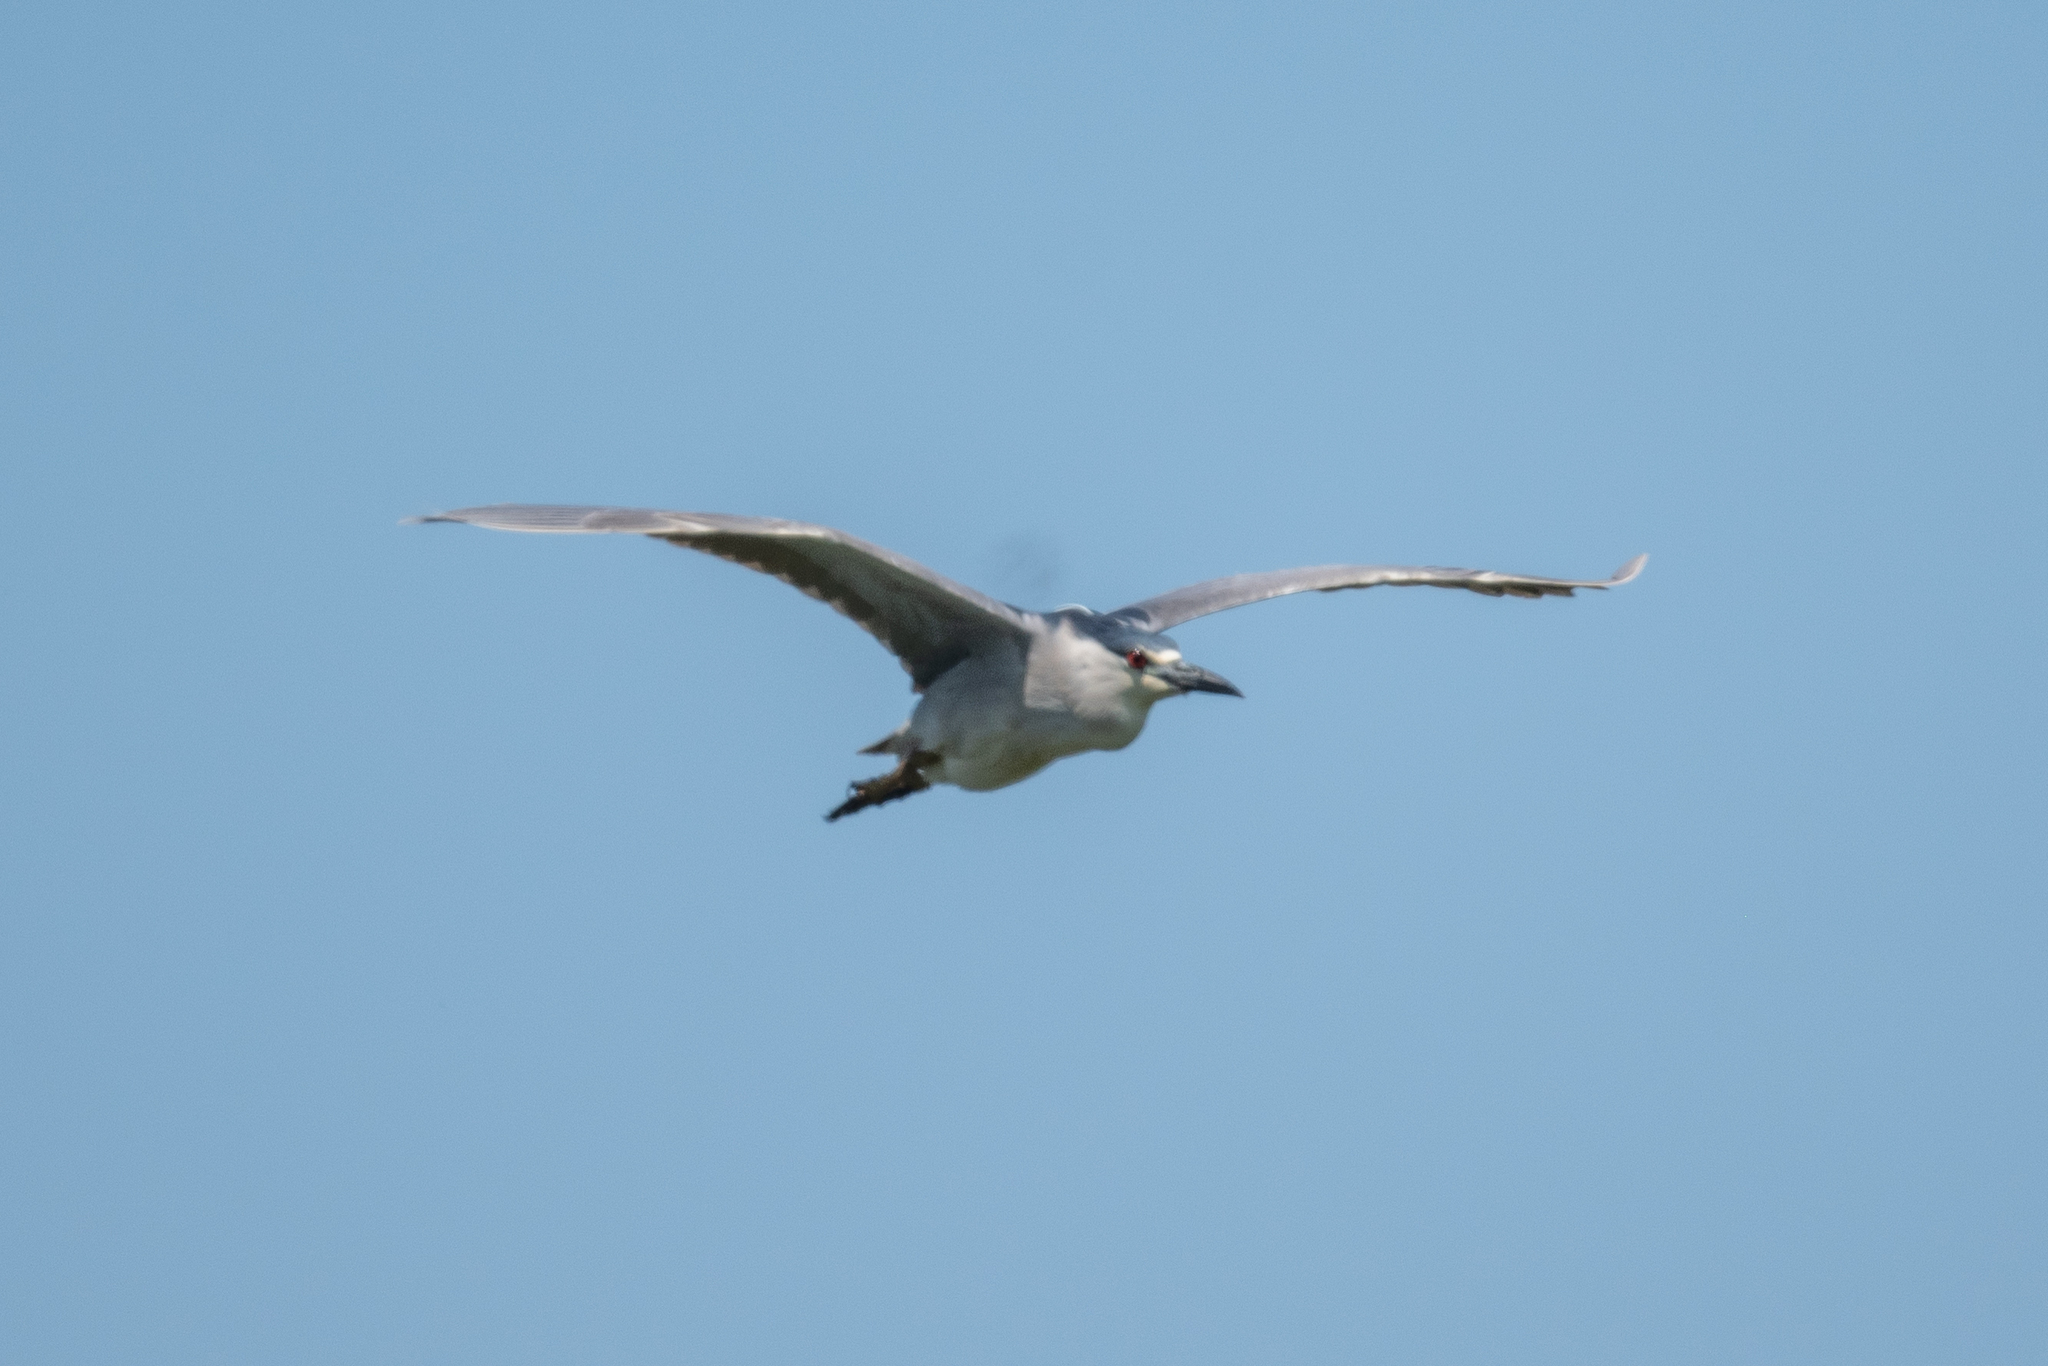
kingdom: Animalia
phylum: Chordata
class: Aves
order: Pelecaniformes
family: Ardeidae
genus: Nycticorax
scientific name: Nycticorax nycticorax
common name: Black-crowned night heron
